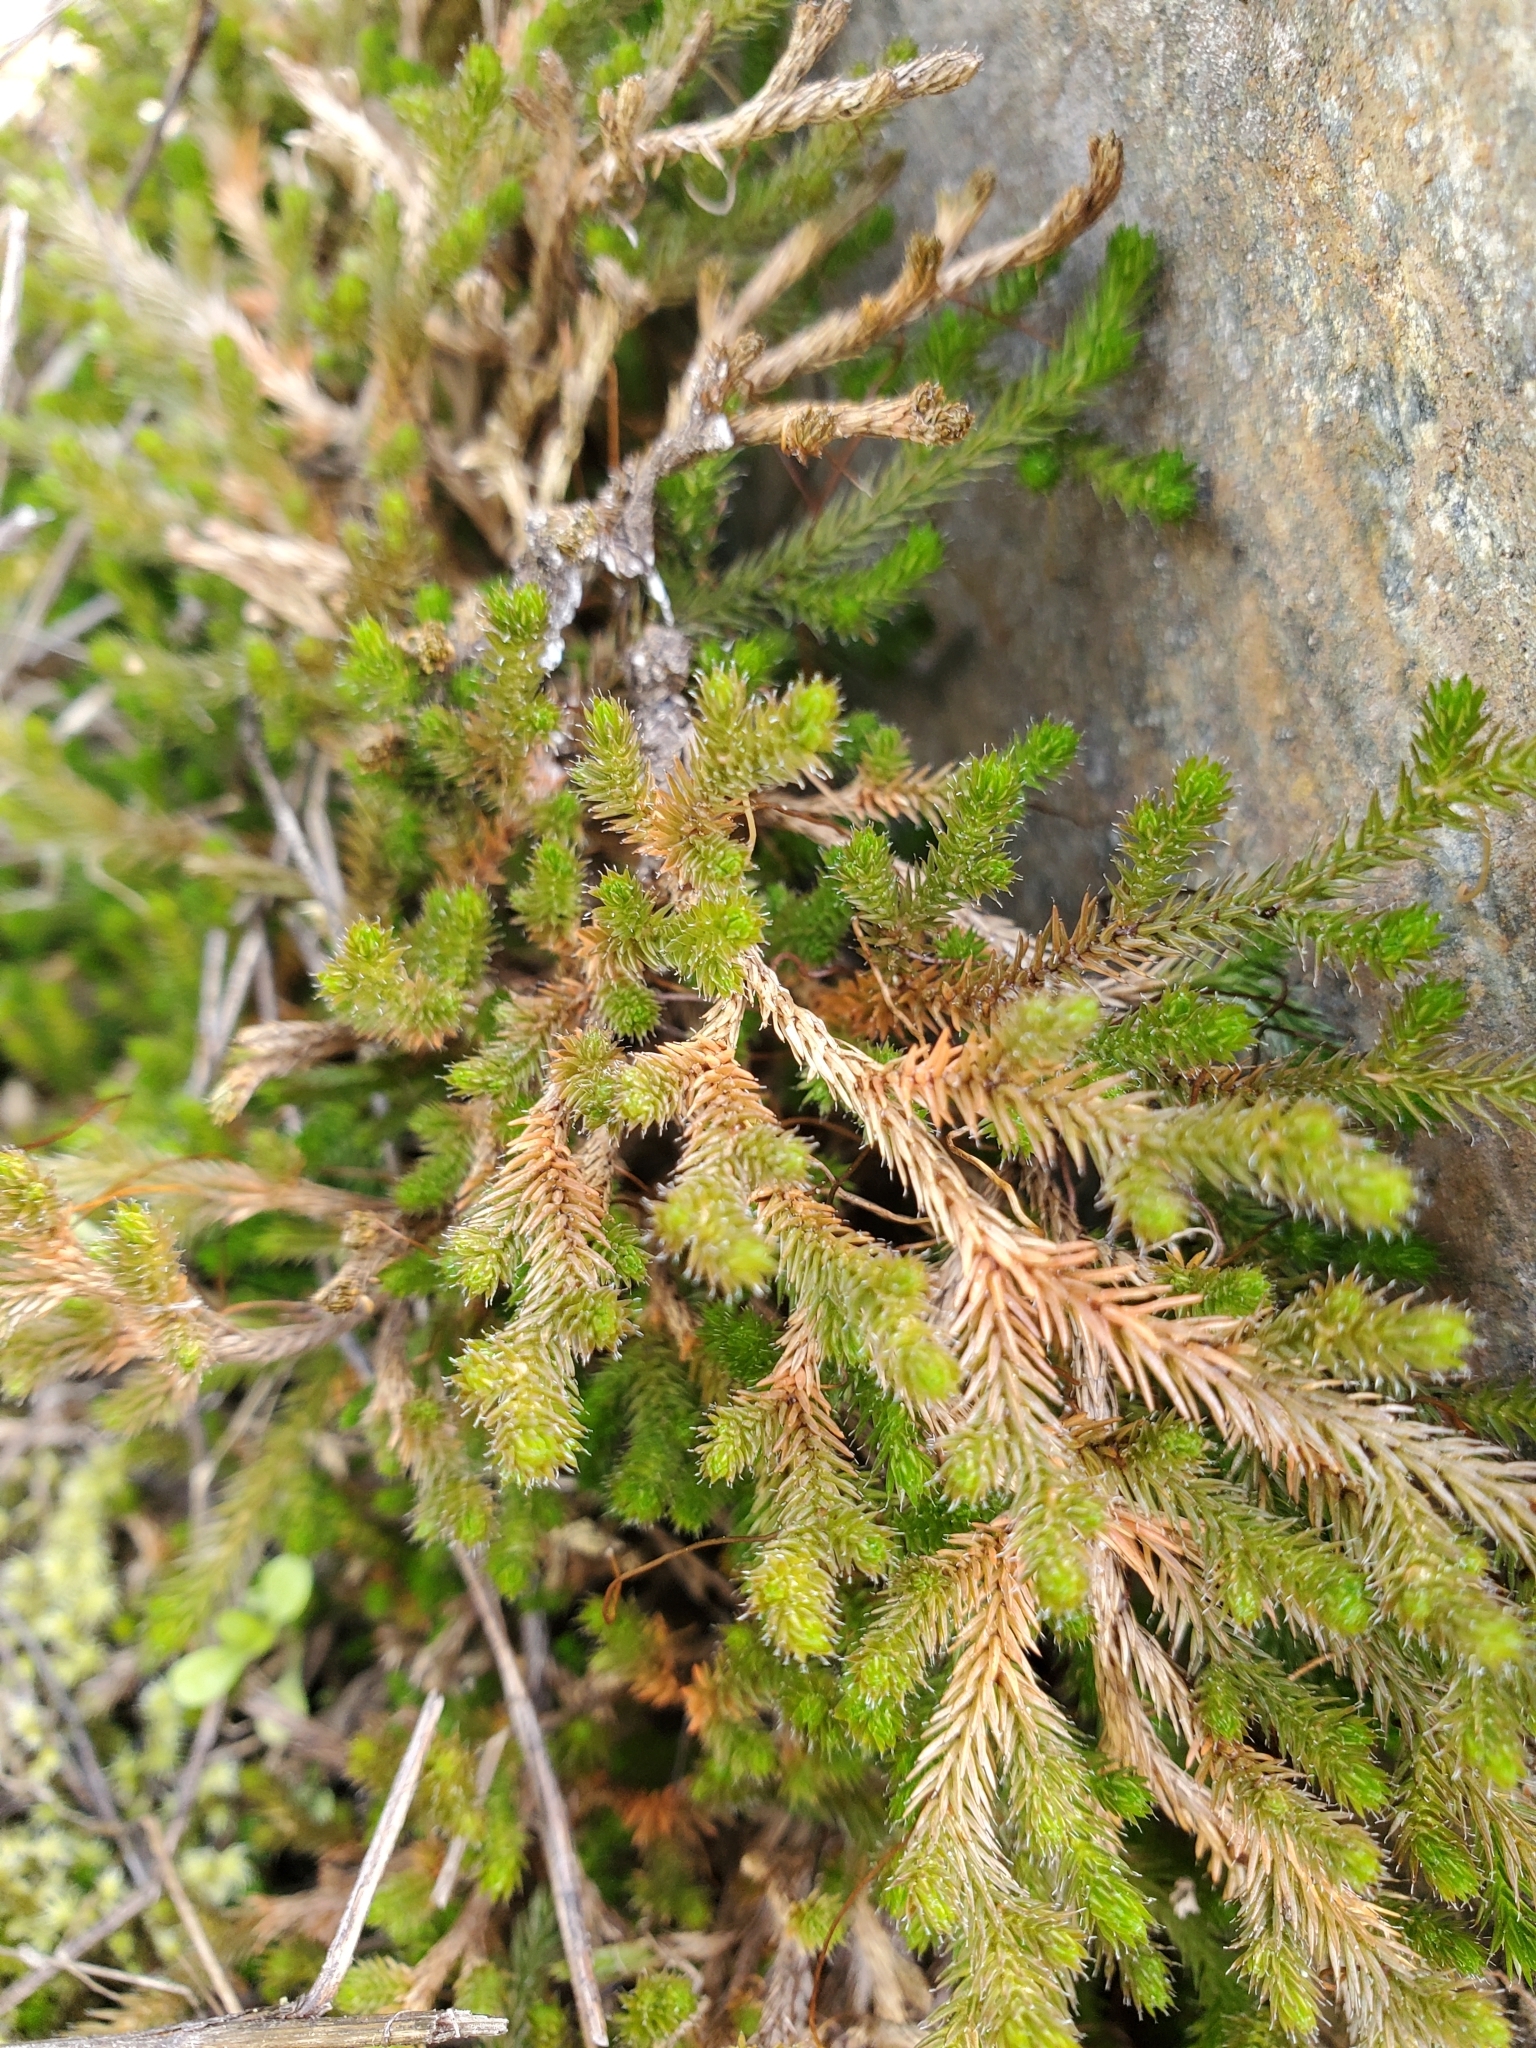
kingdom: Plantae
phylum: Tracheophyta
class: Lycopodiopsida
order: Selaginellales
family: Selaginellaceae
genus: Selaginella
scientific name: Selaginella wallacei
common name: Wallace's selaginella
